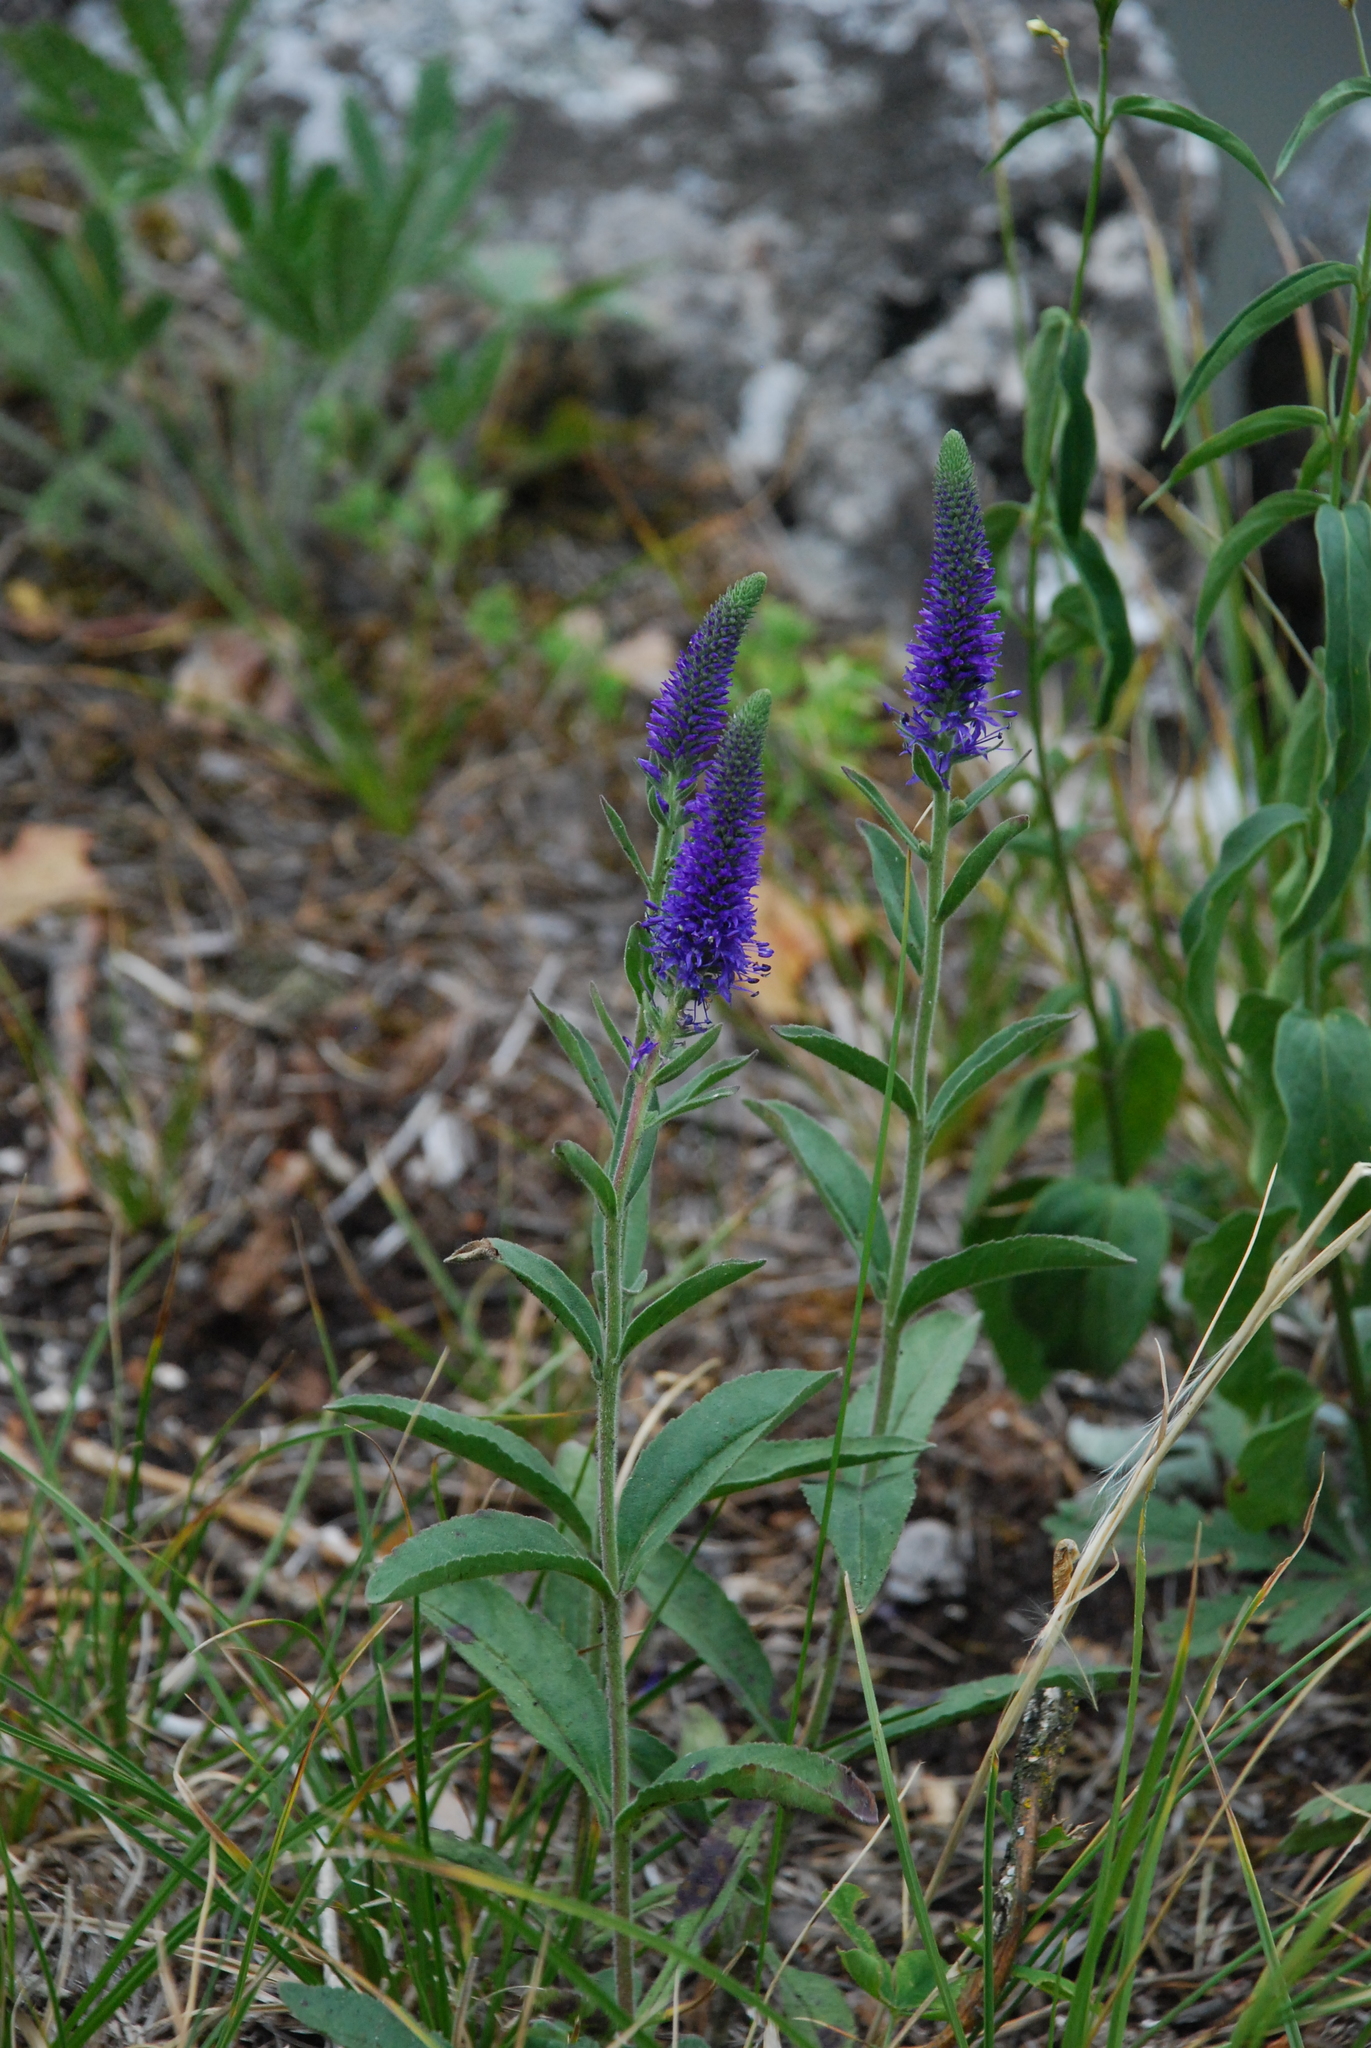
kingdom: Plantae
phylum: Tracheophyta
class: Magnoliopsida
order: Lamiales
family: Plantaginaceae
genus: Veronica
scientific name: Veronica spicata
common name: Spiked speedwell
